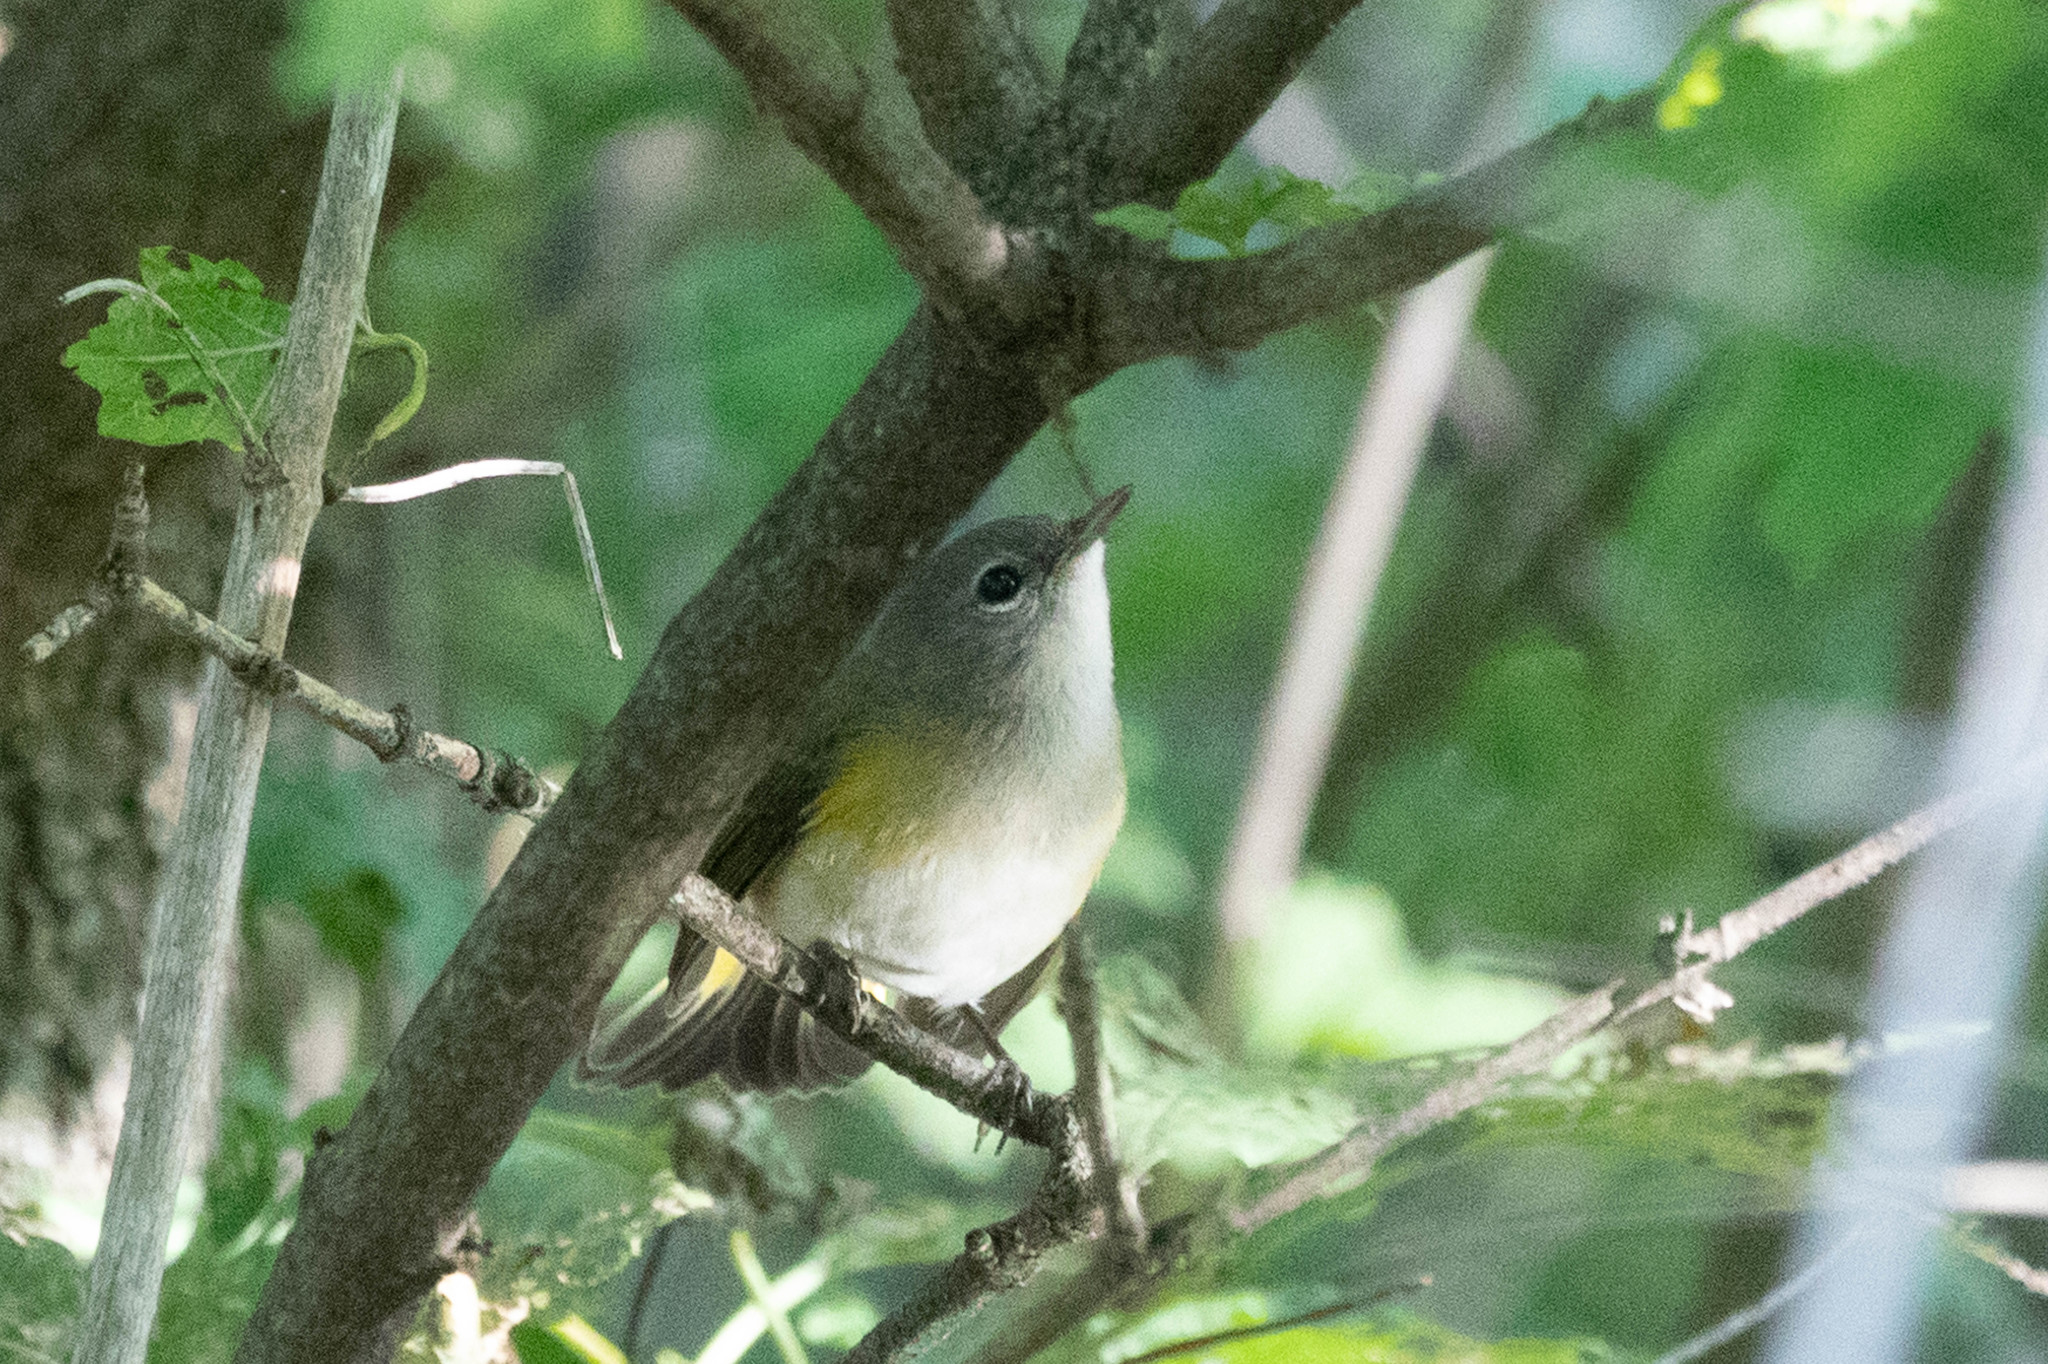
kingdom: Animalia
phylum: Chordata
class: Aves
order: Passeriformes
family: Parulidae
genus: Setophaga
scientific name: Setophaga ruticilla
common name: American redstart
